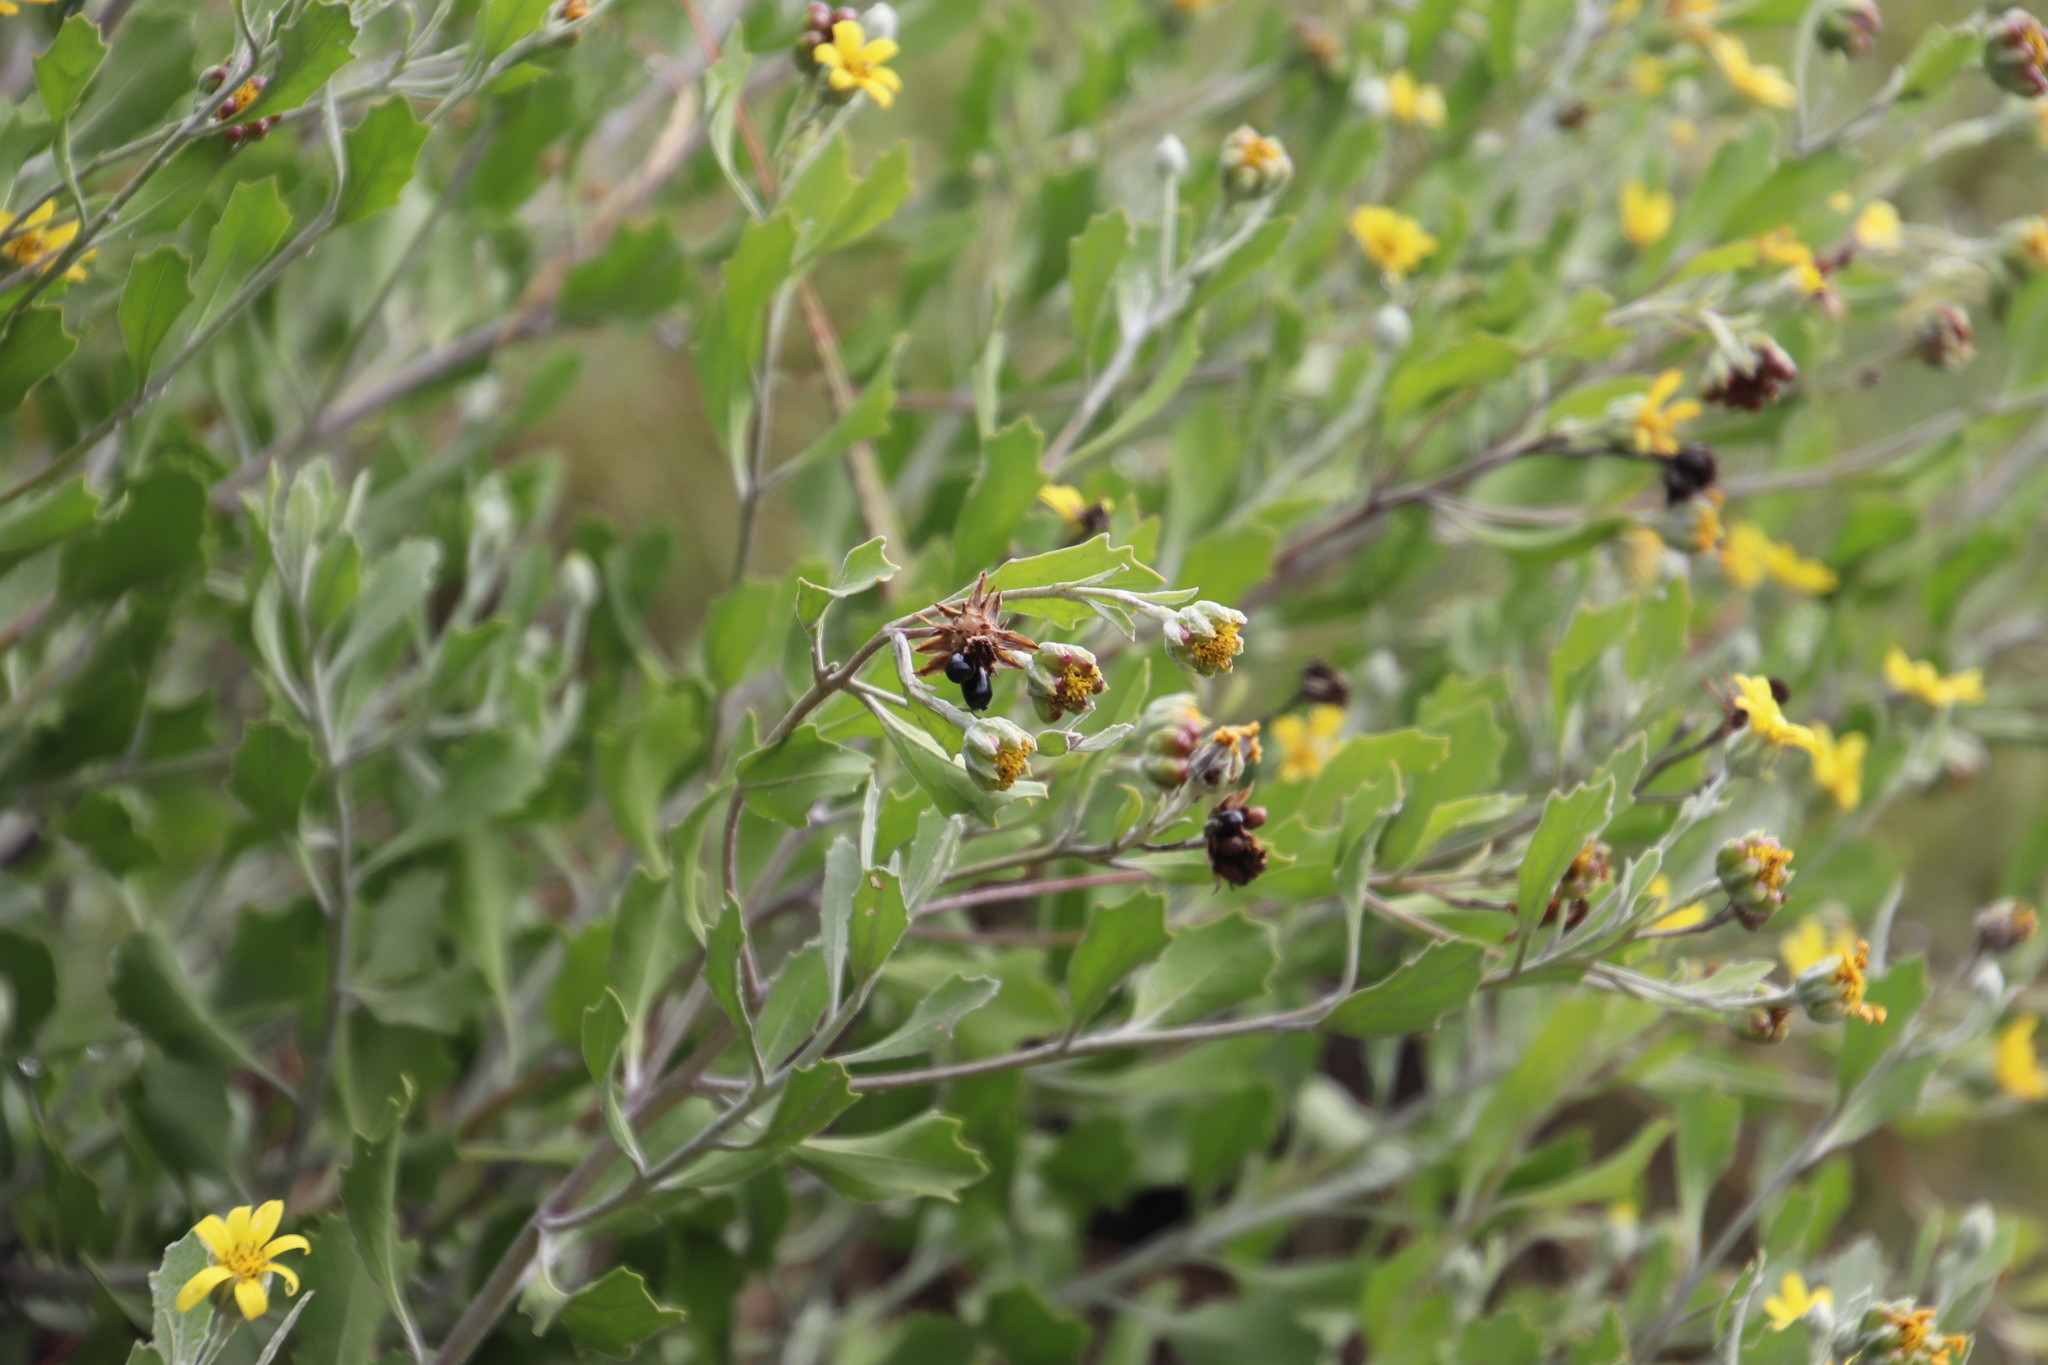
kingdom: Plantae
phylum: Tracheophyta
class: Magnoliopsida
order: Asterales
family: Asteraceae
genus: Osteospermum
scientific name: Osteospermum moniliferum
